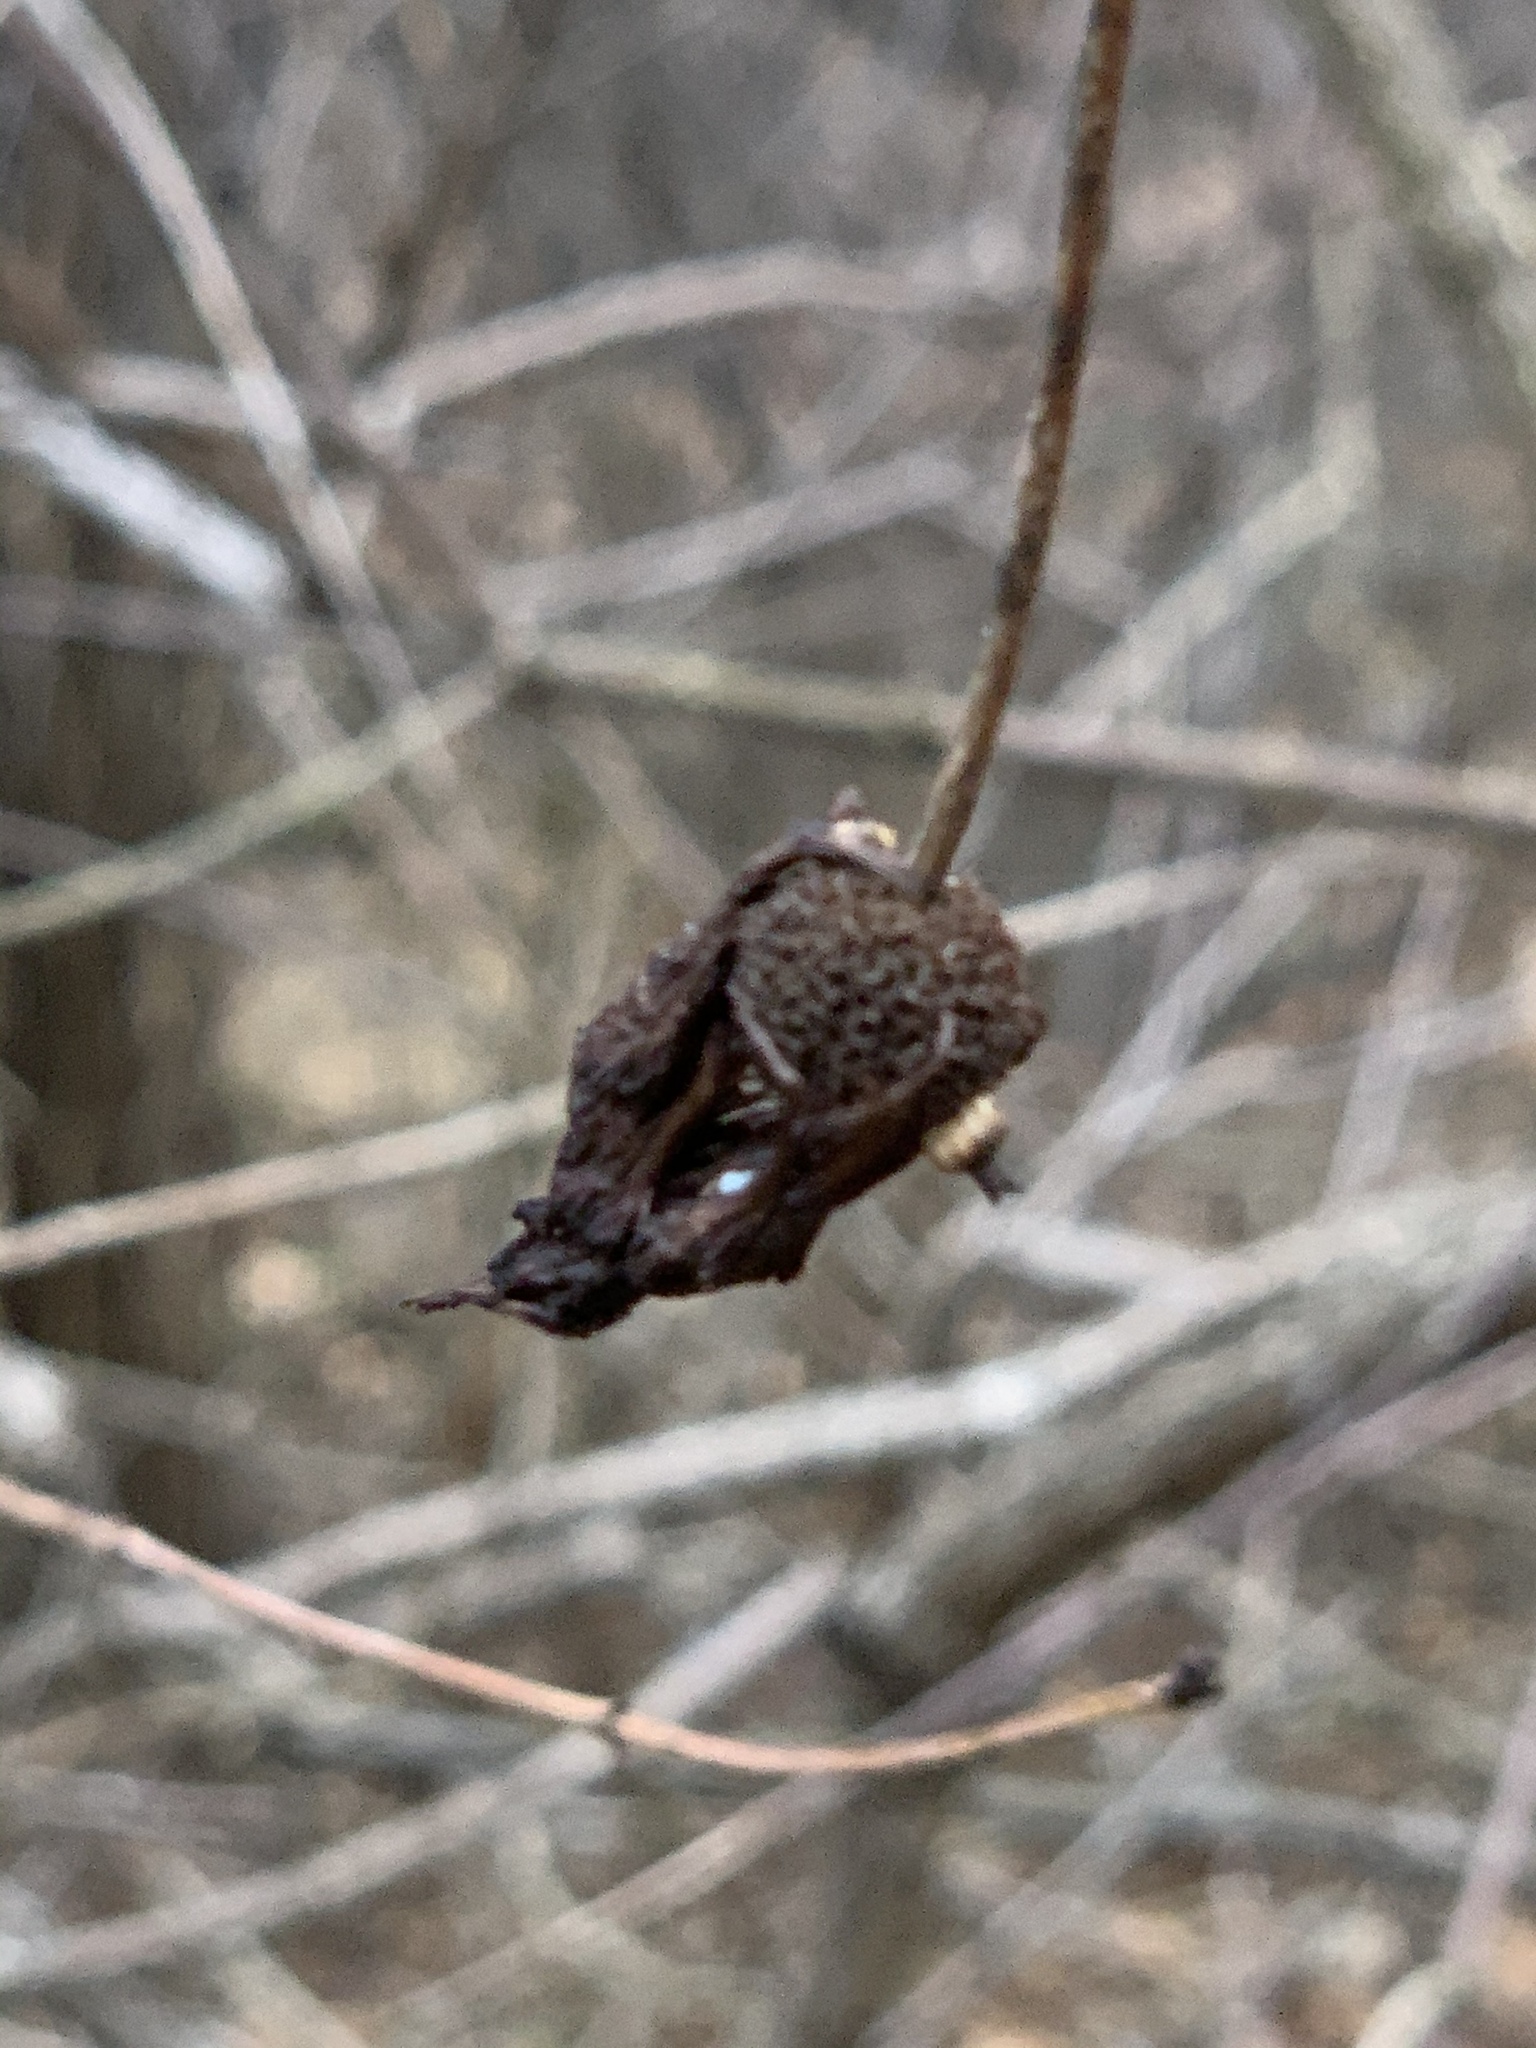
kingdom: Plantae
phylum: Tracheophyta
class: Magnoliopsida
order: Gentianales
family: Rubiaceae
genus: Cephalanthus
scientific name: Cephalanthus occidentalis
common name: Button-willow
